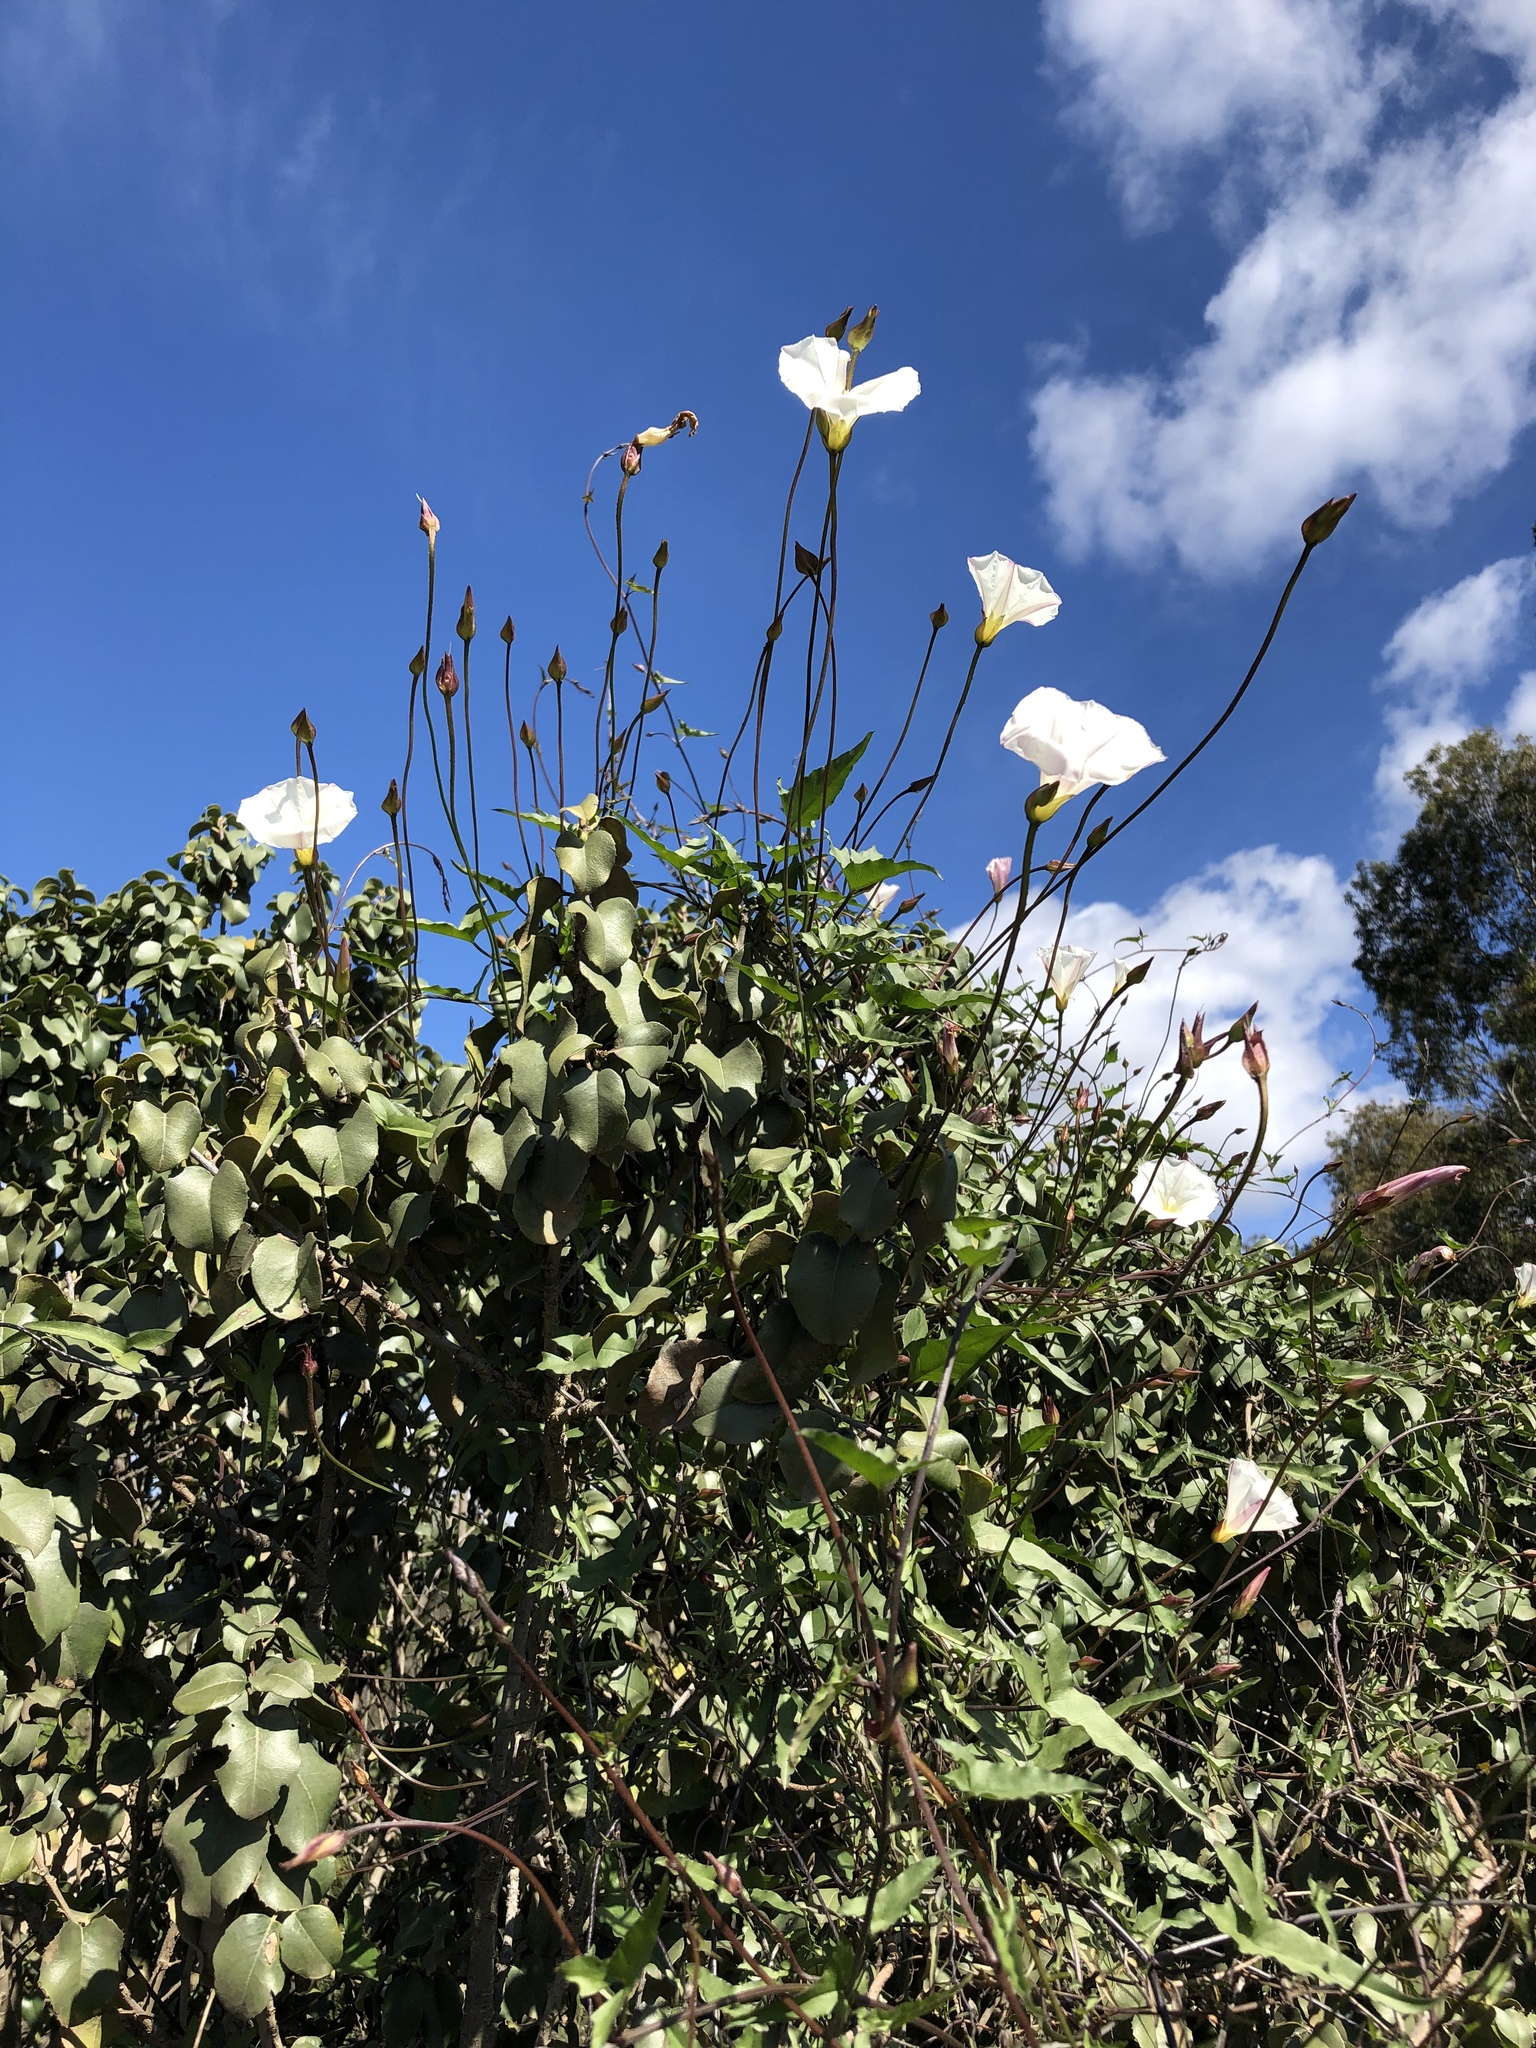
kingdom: Plantae
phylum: Tracheophyta
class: Magnoliopsida
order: Solanales
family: Convolvulaceae
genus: Calystegia
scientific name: Calystegia macrostegia
